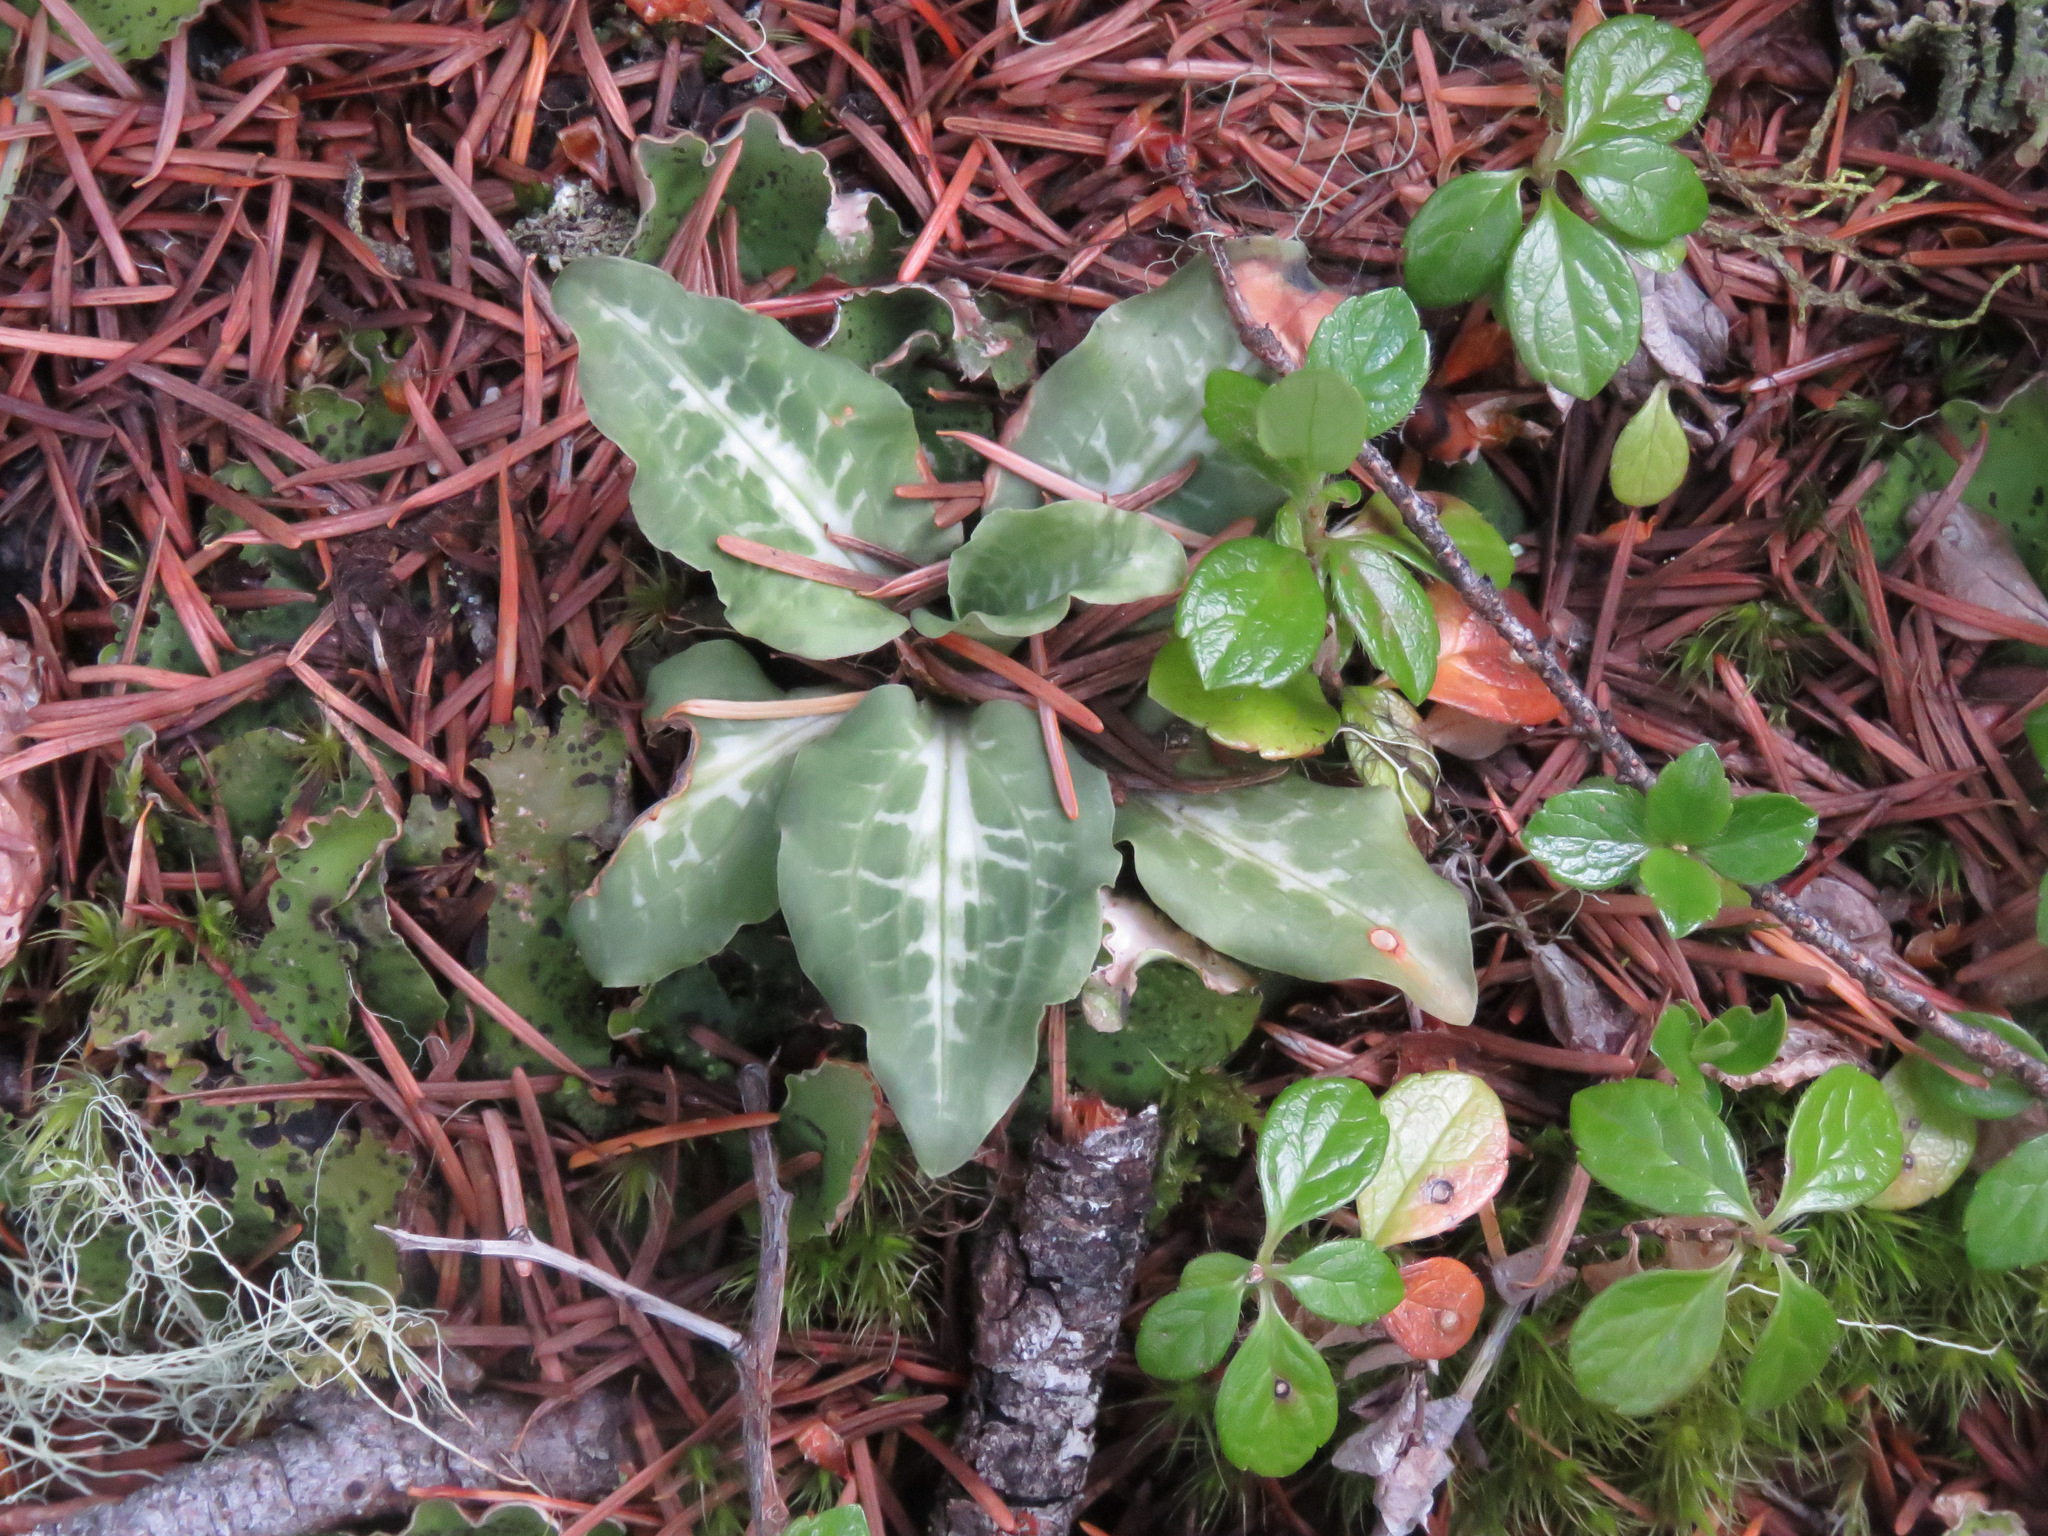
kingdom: Plantae
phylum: Tracheophyta
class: Liliopsida
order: Asparagales
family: Orchidaceae
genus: Goodyera
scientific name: Goodyera oblongifolia
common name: Giant rattlesnake-plantain
